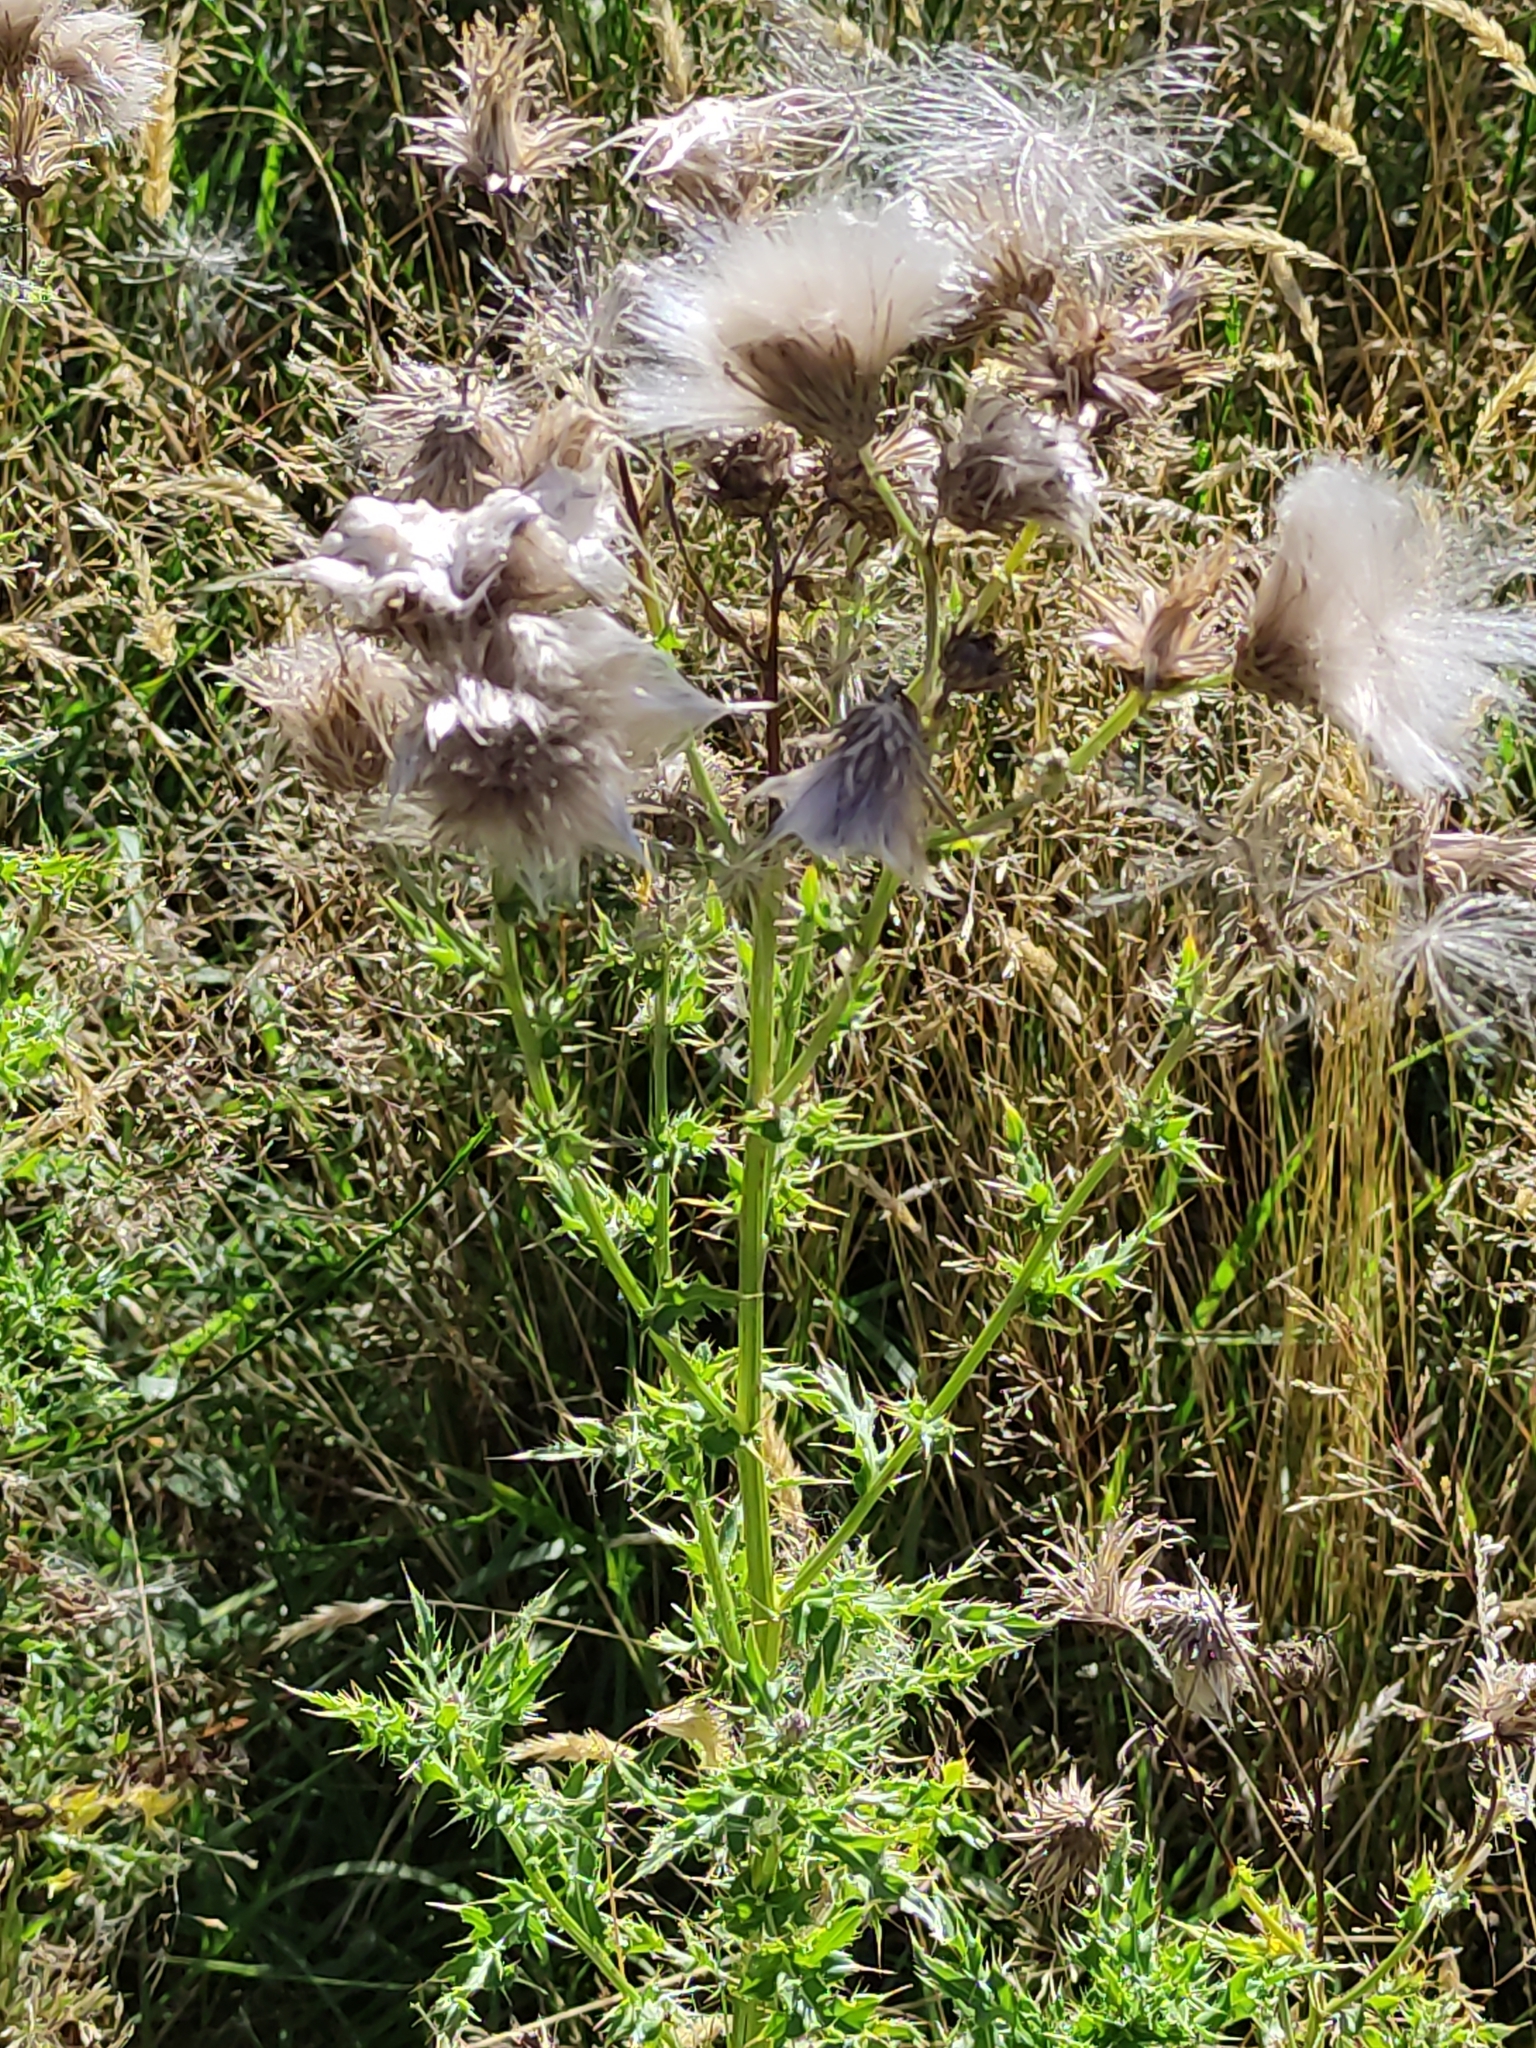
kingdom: Plantae
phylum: Tracheophyta
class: Magnoliopsida
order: Asterales
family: Asteraceae
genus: Cirsium
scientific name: Cirsium arvense
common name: Creeping thistle
